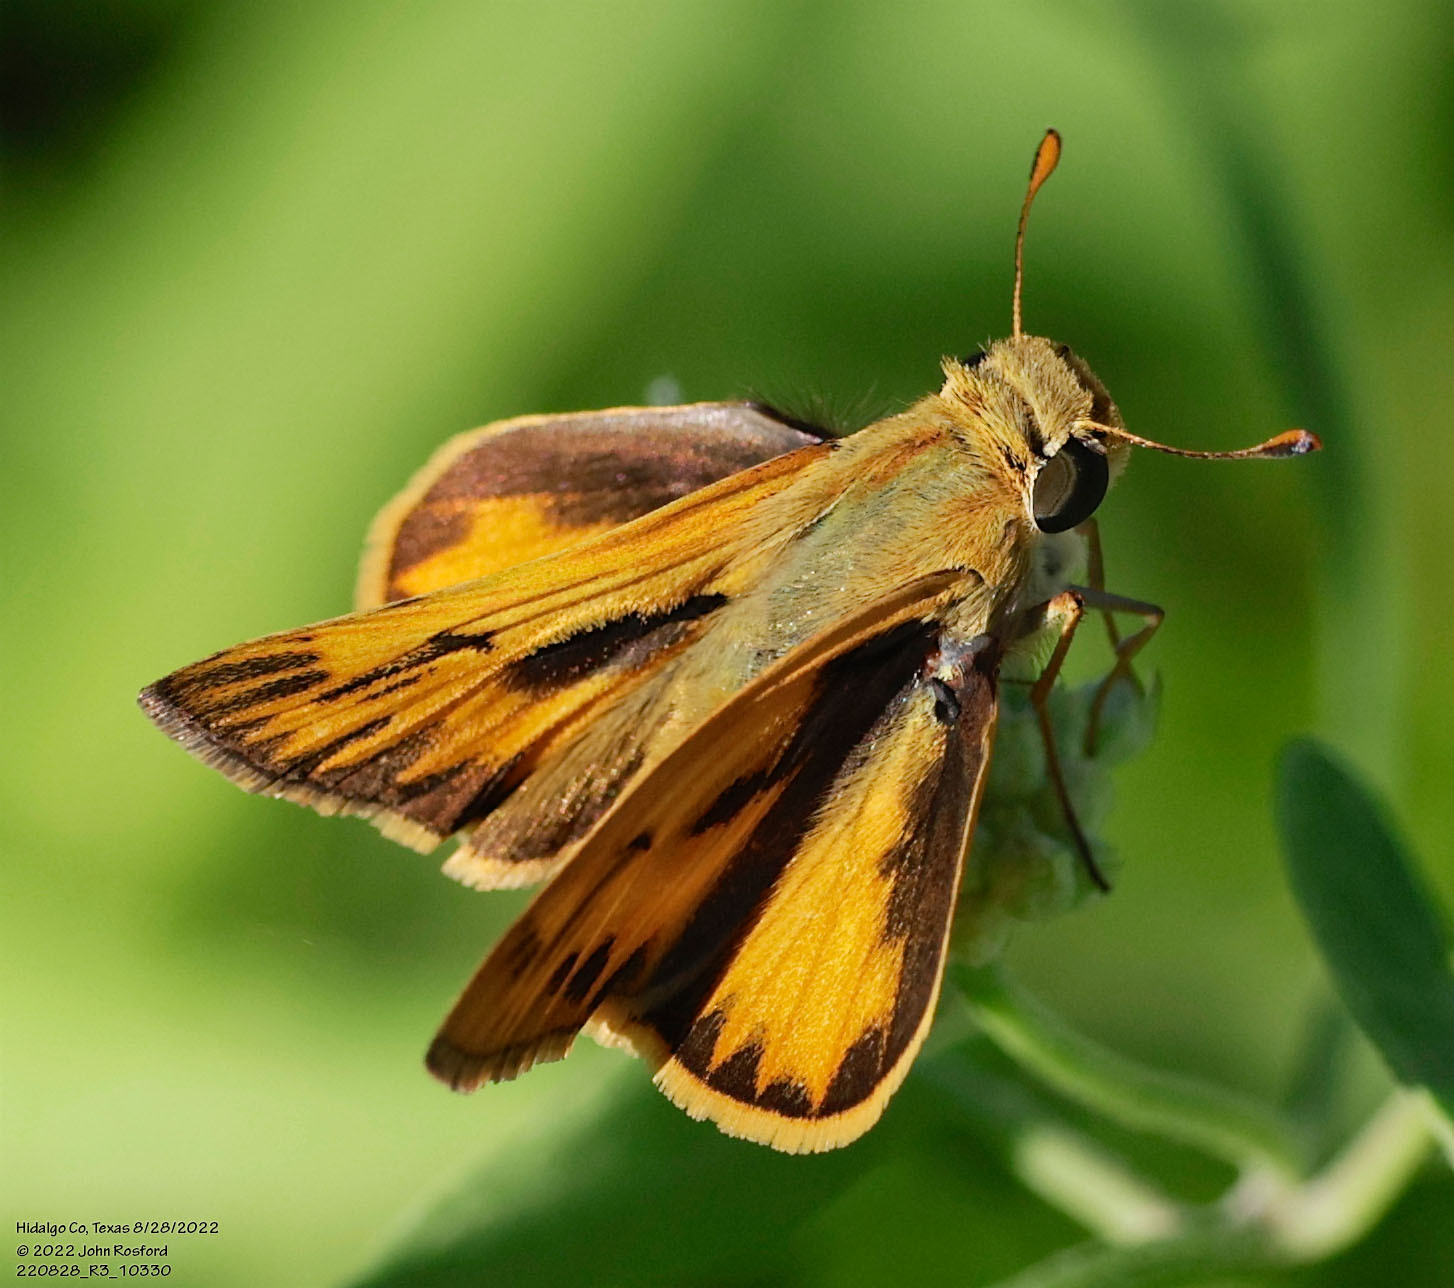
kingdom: Animalia
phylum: Arthropoda
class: Insecta
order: Lepidoptera
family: Hesperiidae
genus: Hylephila
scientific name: Hylephila phyleus
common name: Fiery skipper
